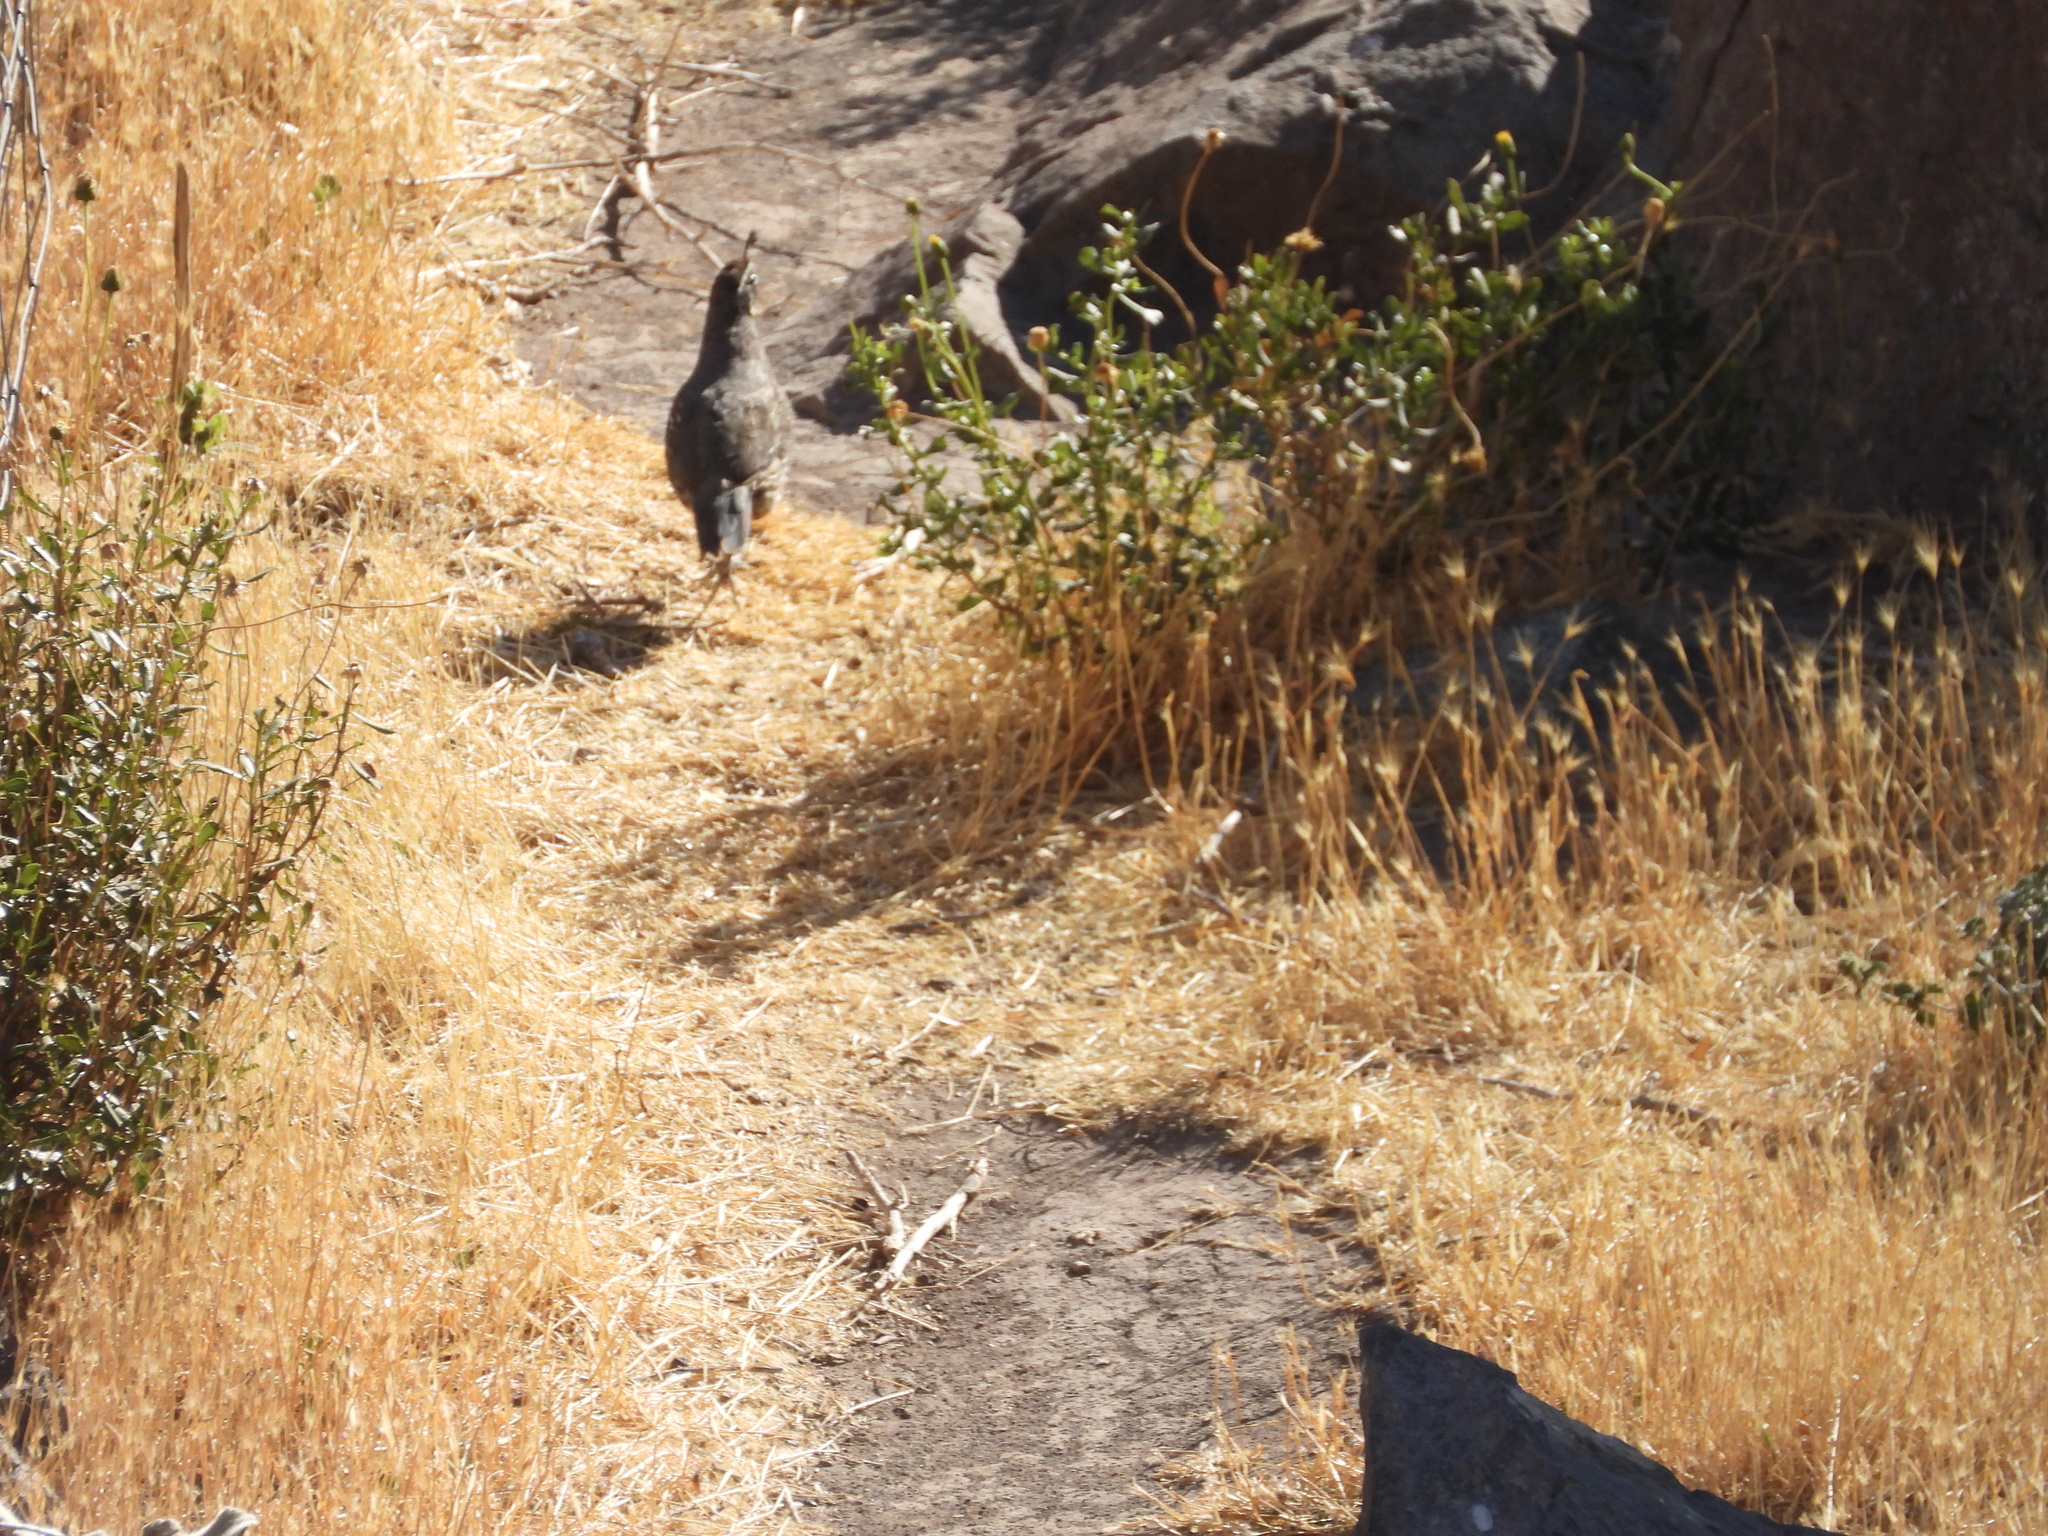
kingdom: Animalia
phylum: Chordata
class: Aves
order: Galliformes
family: Odontophoridae
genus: Callipepla
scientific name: Callipepla californica
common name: California quail
